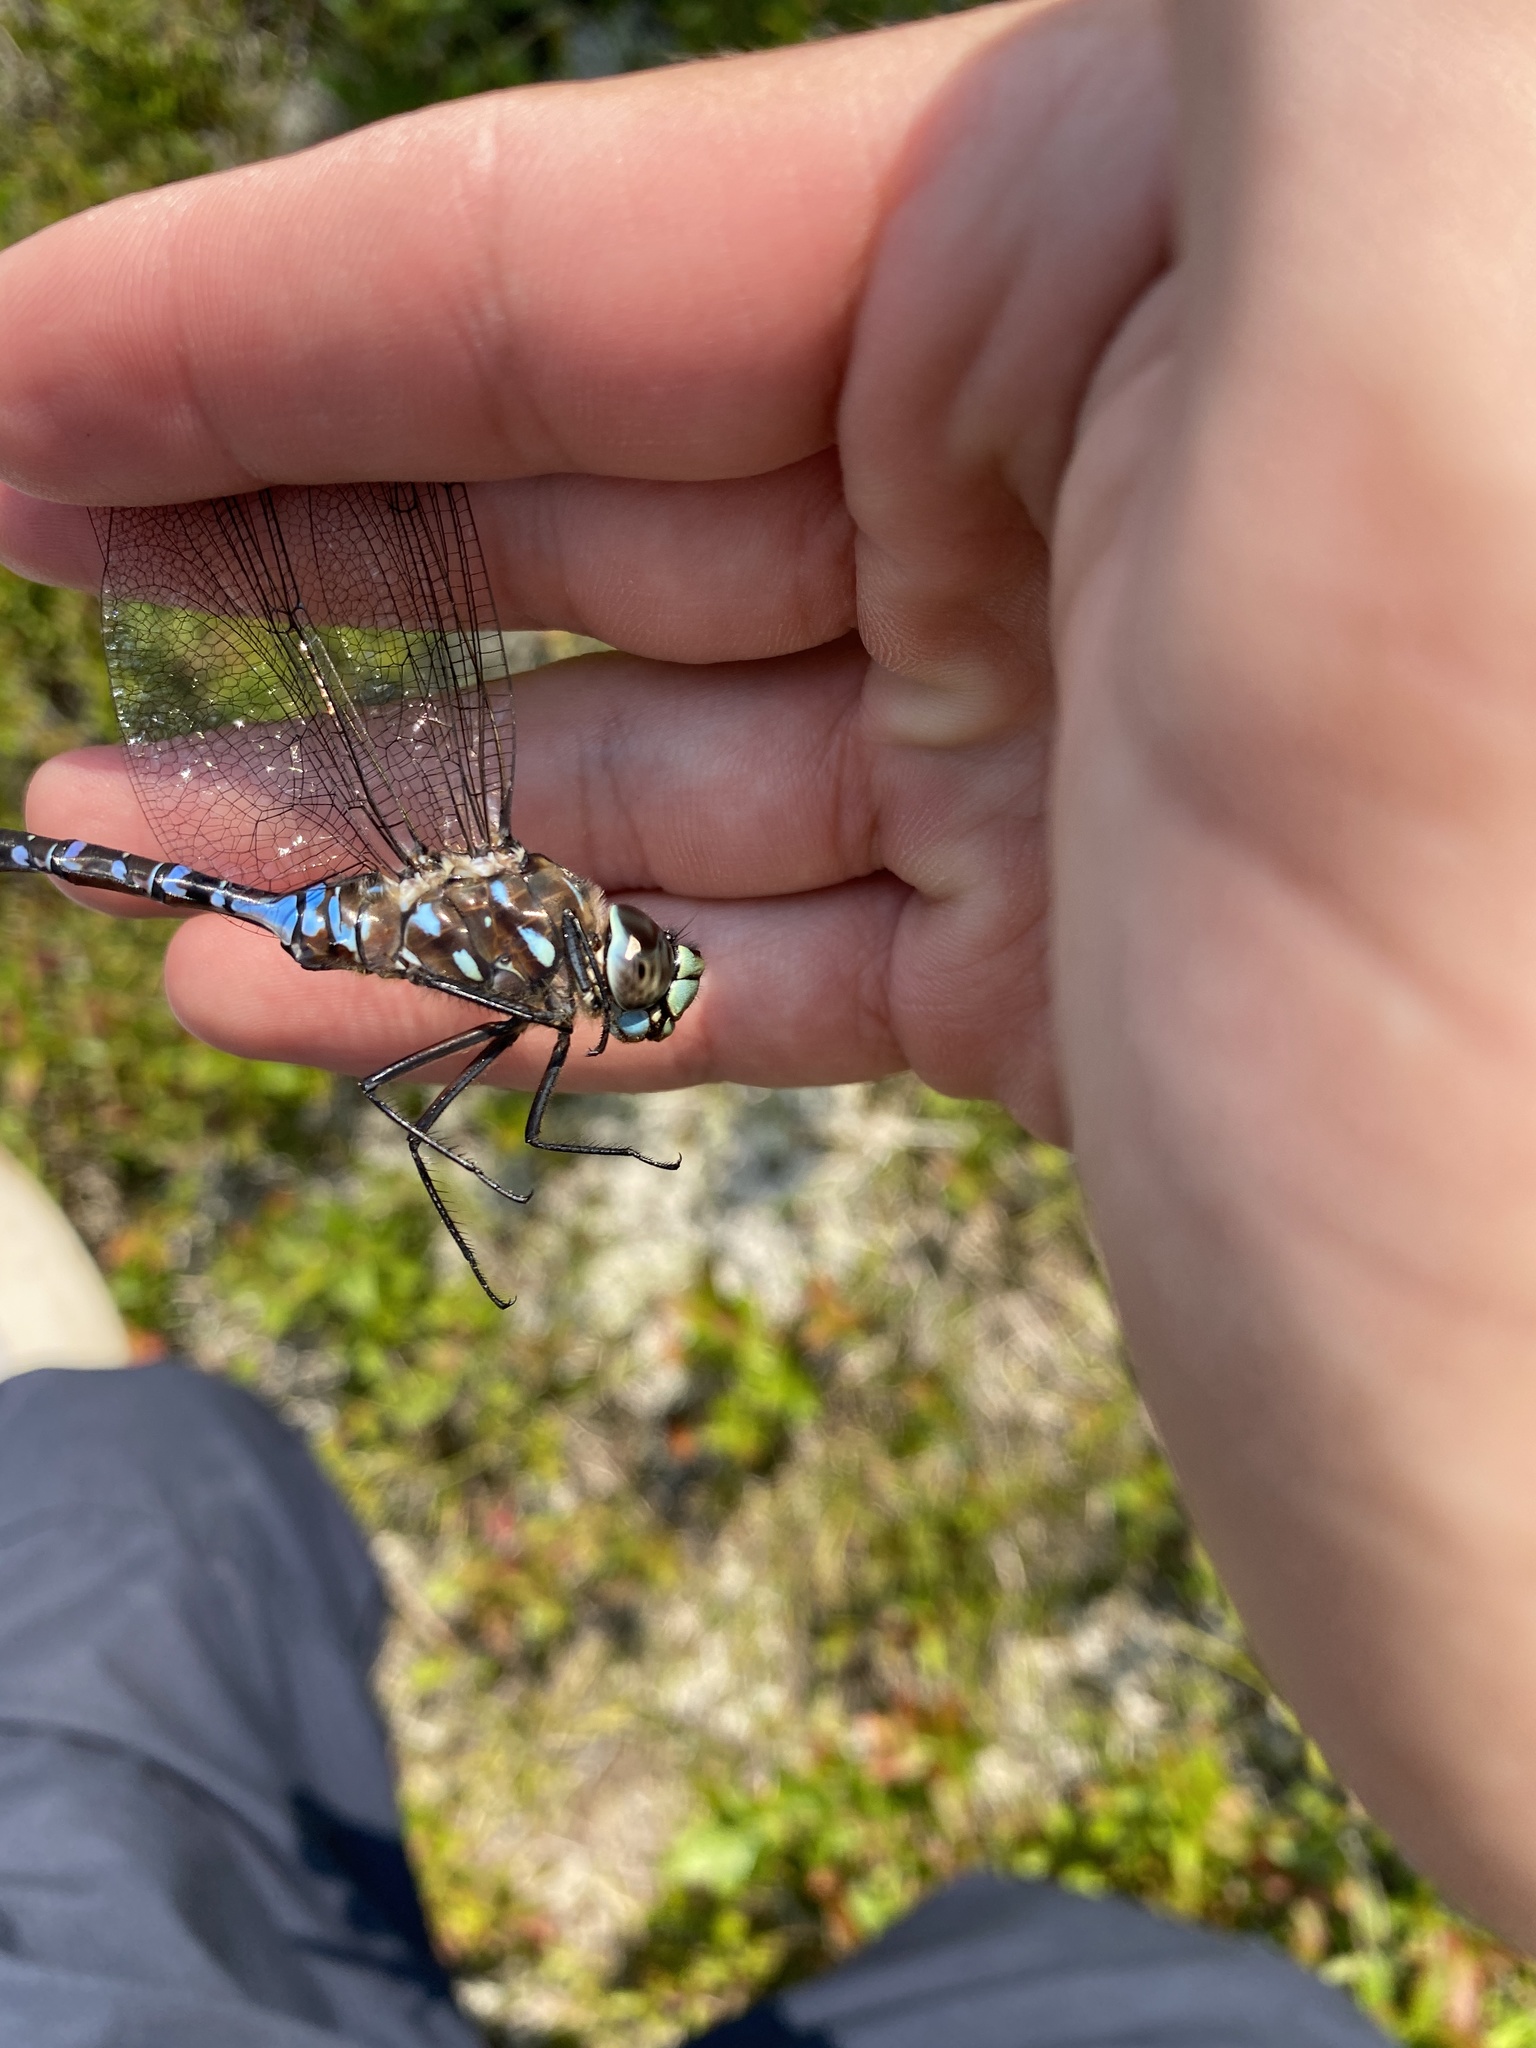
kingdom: Animalia
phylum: Arthropoda
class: Insecta
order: Odonata
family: Aeshnidae
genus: Aeshna
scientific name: Aeshna interrupta
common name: Variable darner
